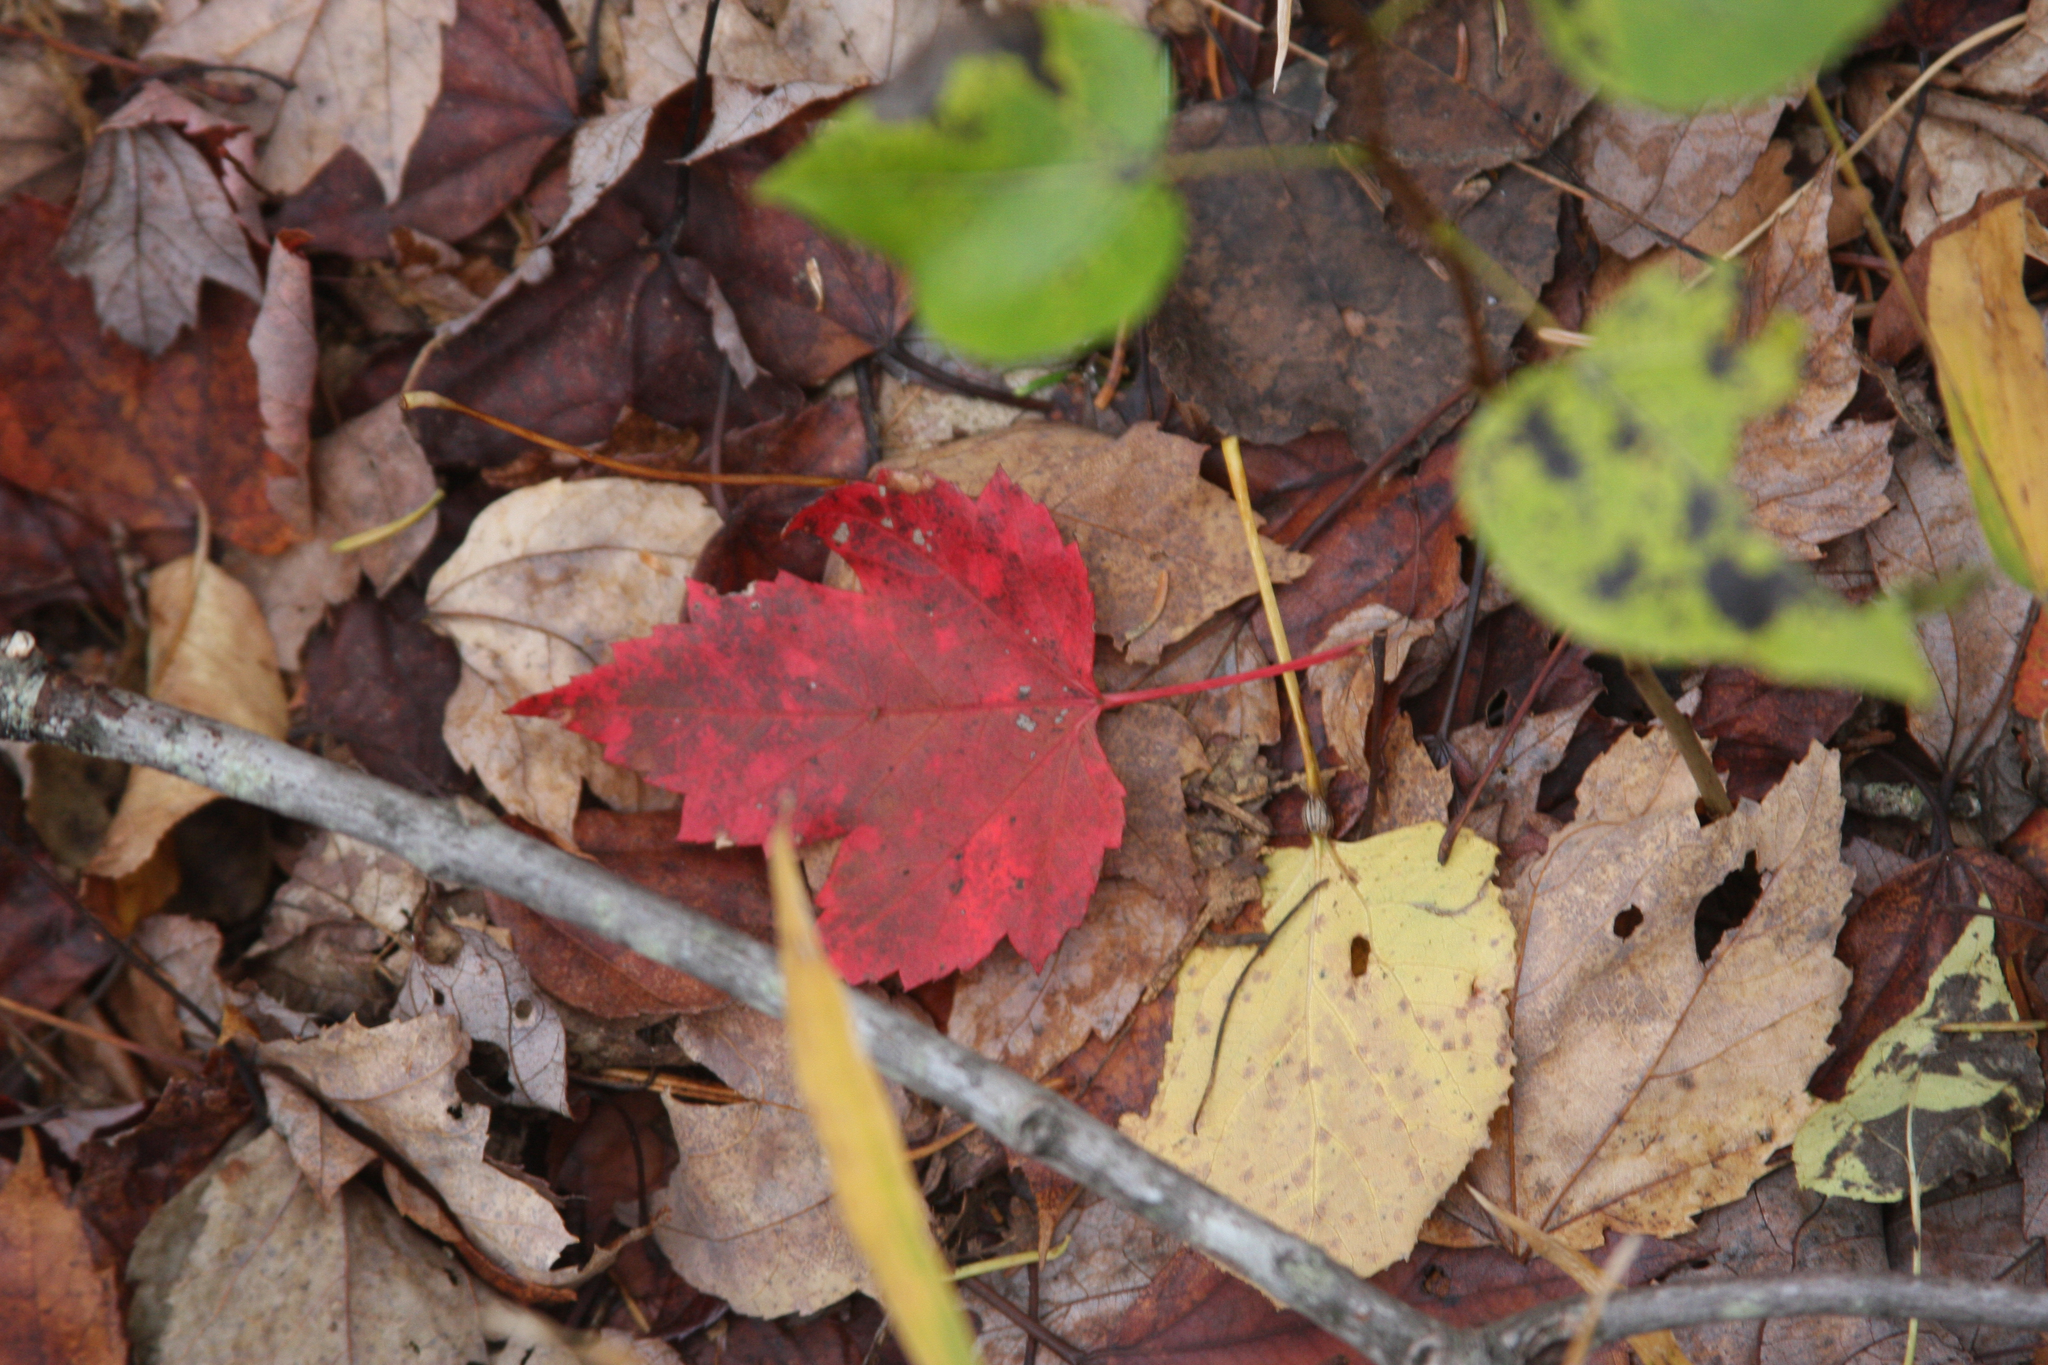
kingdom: Plantae
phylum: Tracheophyta
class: Magnoliopsida
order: Sapindales
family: Sapindaceae
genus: Acer
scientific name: Acer rubrum
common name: Red maple
